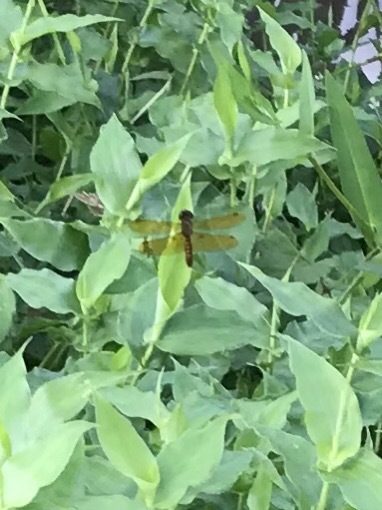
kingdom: Animalia
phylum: Arthropoda
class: Insecta
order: Odonata
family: Libellulidae
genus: Perithemis
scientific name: Perithemis tenera
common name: Eastern amberwing
